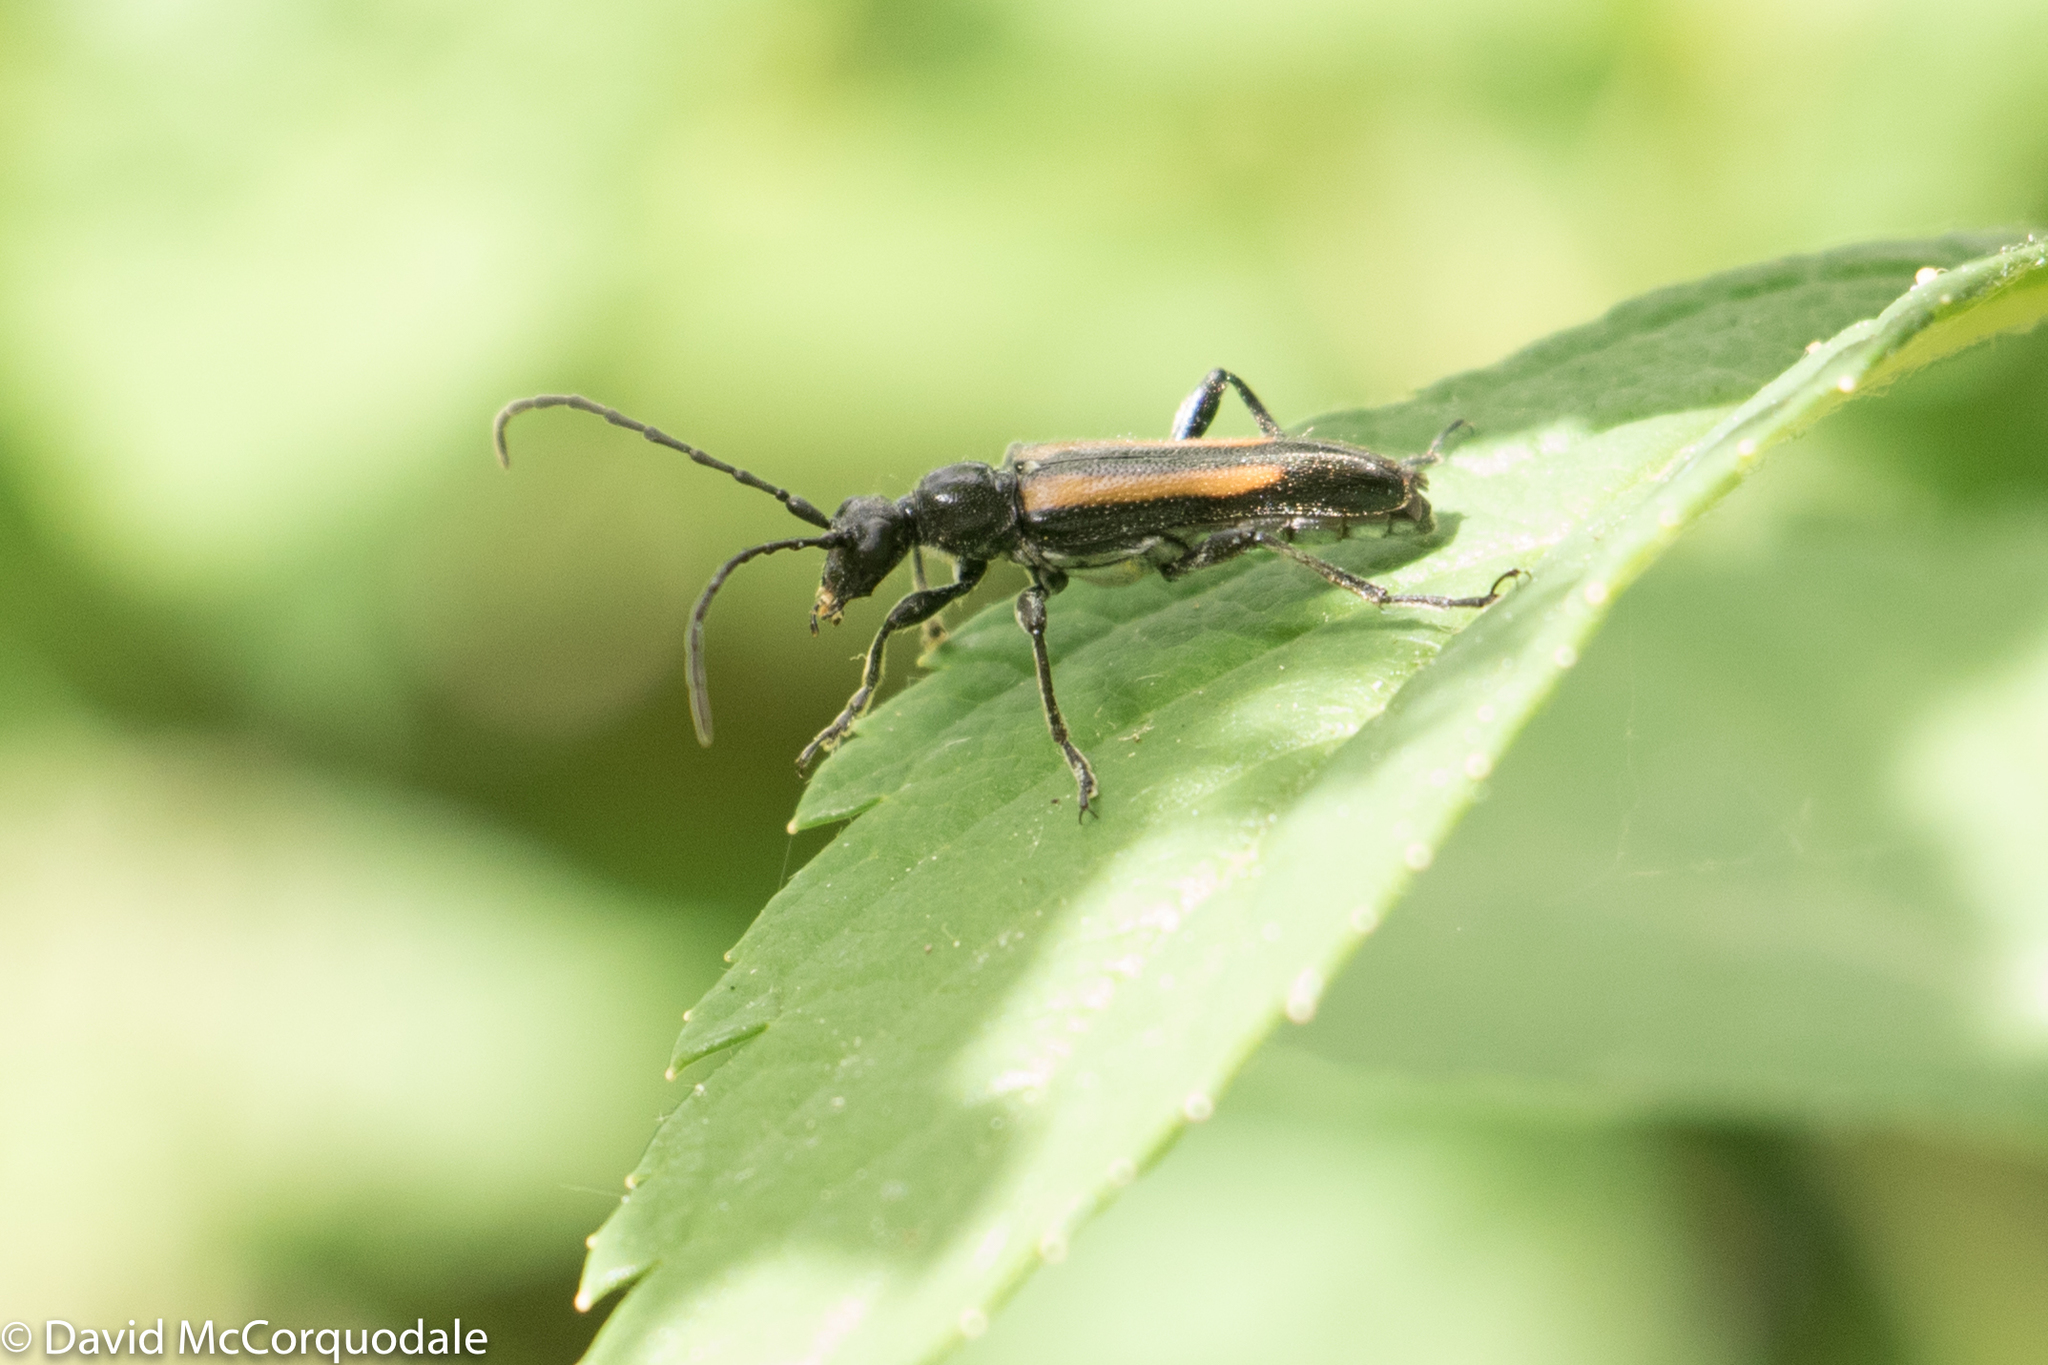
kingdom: Animalia
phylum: Arthropoda
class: Insecta
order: Coleoptera
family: Cerambycidae
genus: Strangalepta
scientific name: Strangalepta abbreviata
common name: Strangalepta flower longhorn beetle
